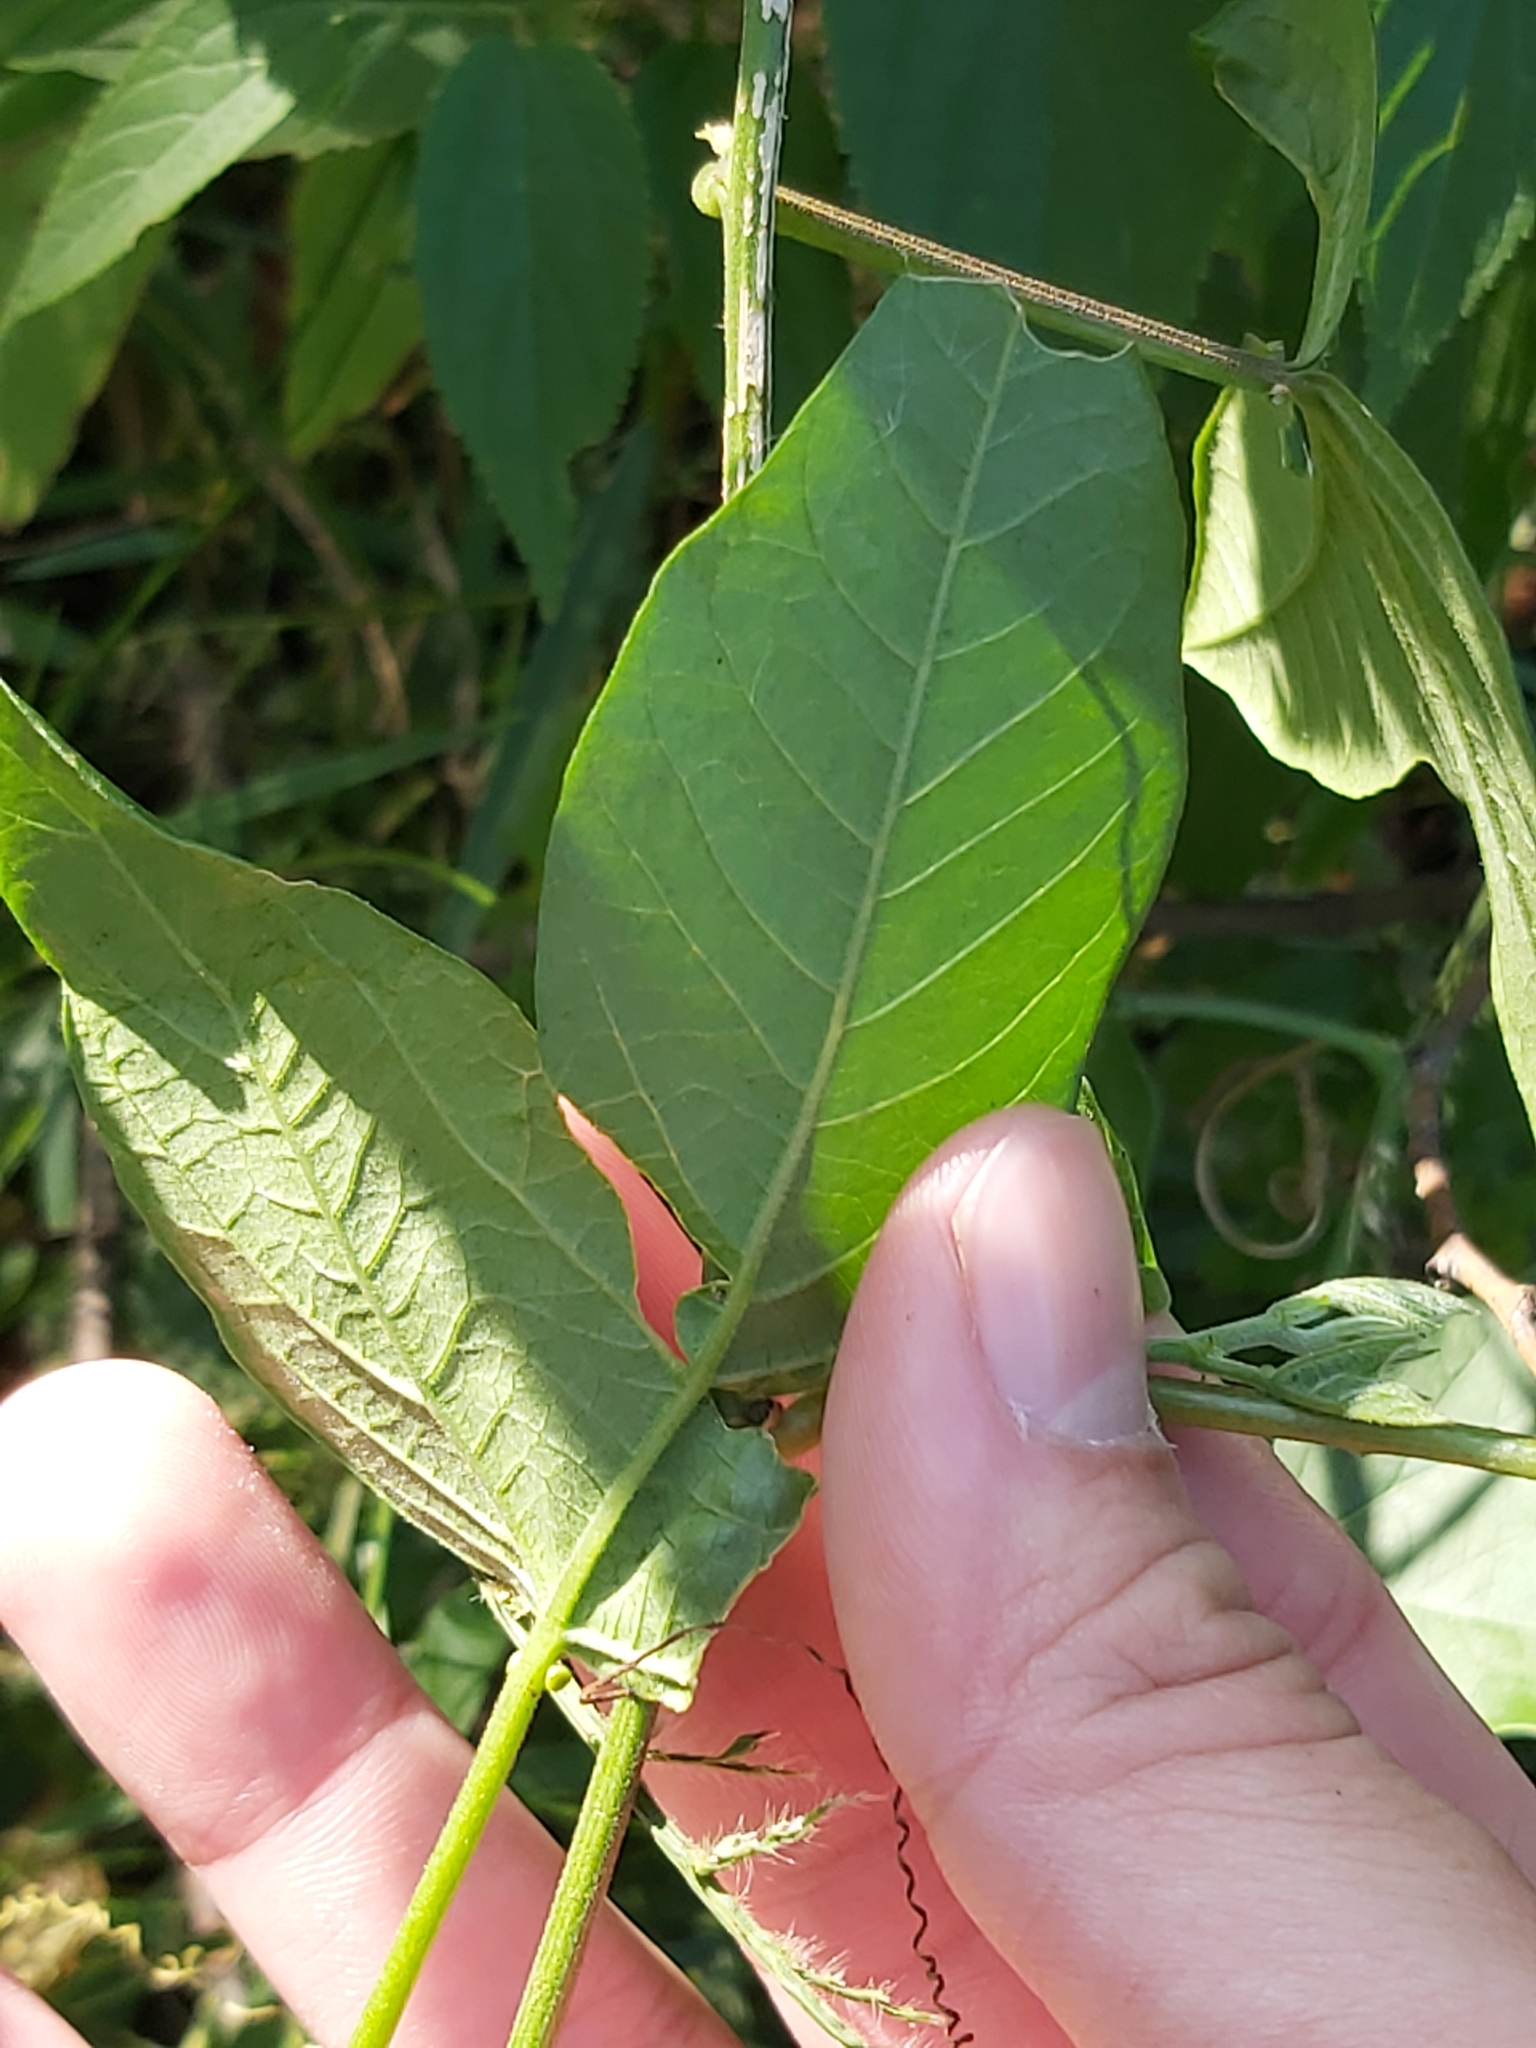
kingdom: Plantae
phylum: Tracheophyta
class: Magnoliopsida
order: Malpighiales
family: Passifloraceae
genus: Passiflora
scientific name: Passiflora herbertiana
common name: Yellow passionflower
